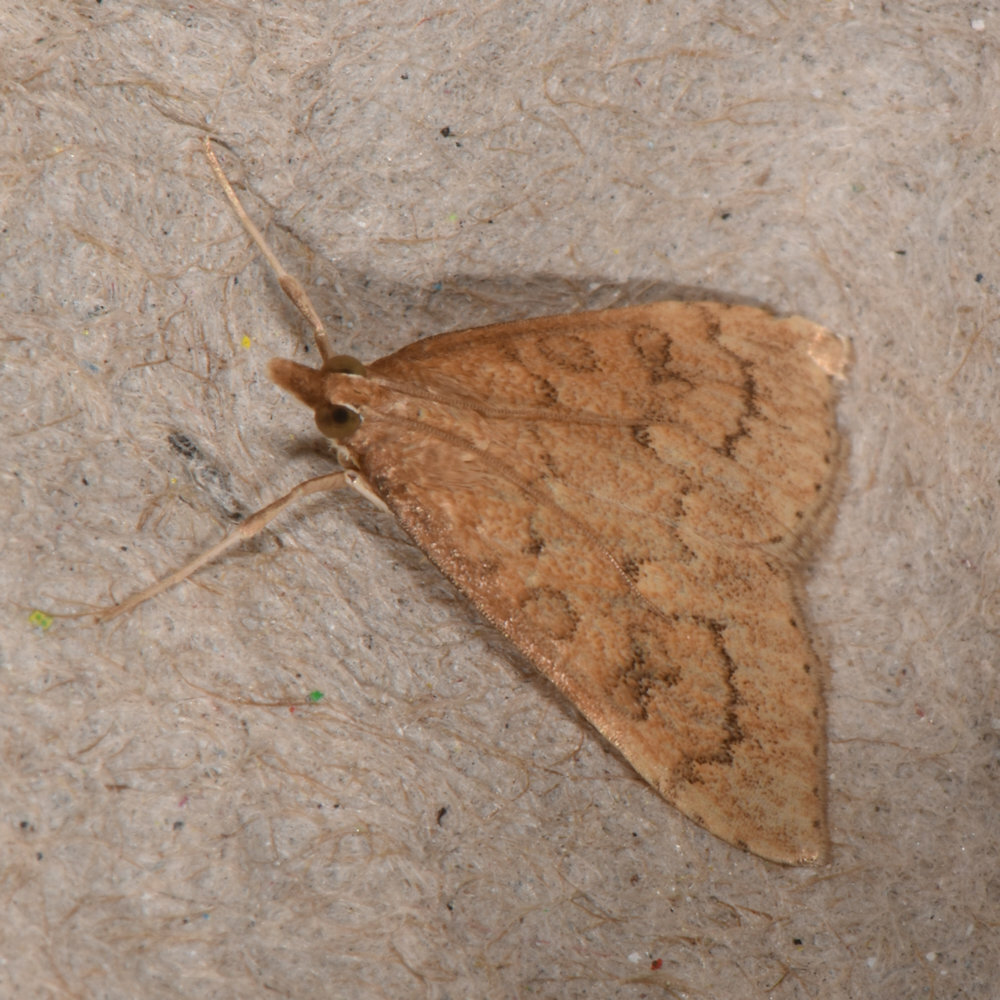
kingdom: Animalia
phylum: Arthropoda
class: Insecta
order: Lepidoptera
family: Crambidae
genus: Udea
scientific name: Udea rubigalis
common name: Celery leaftier moth
